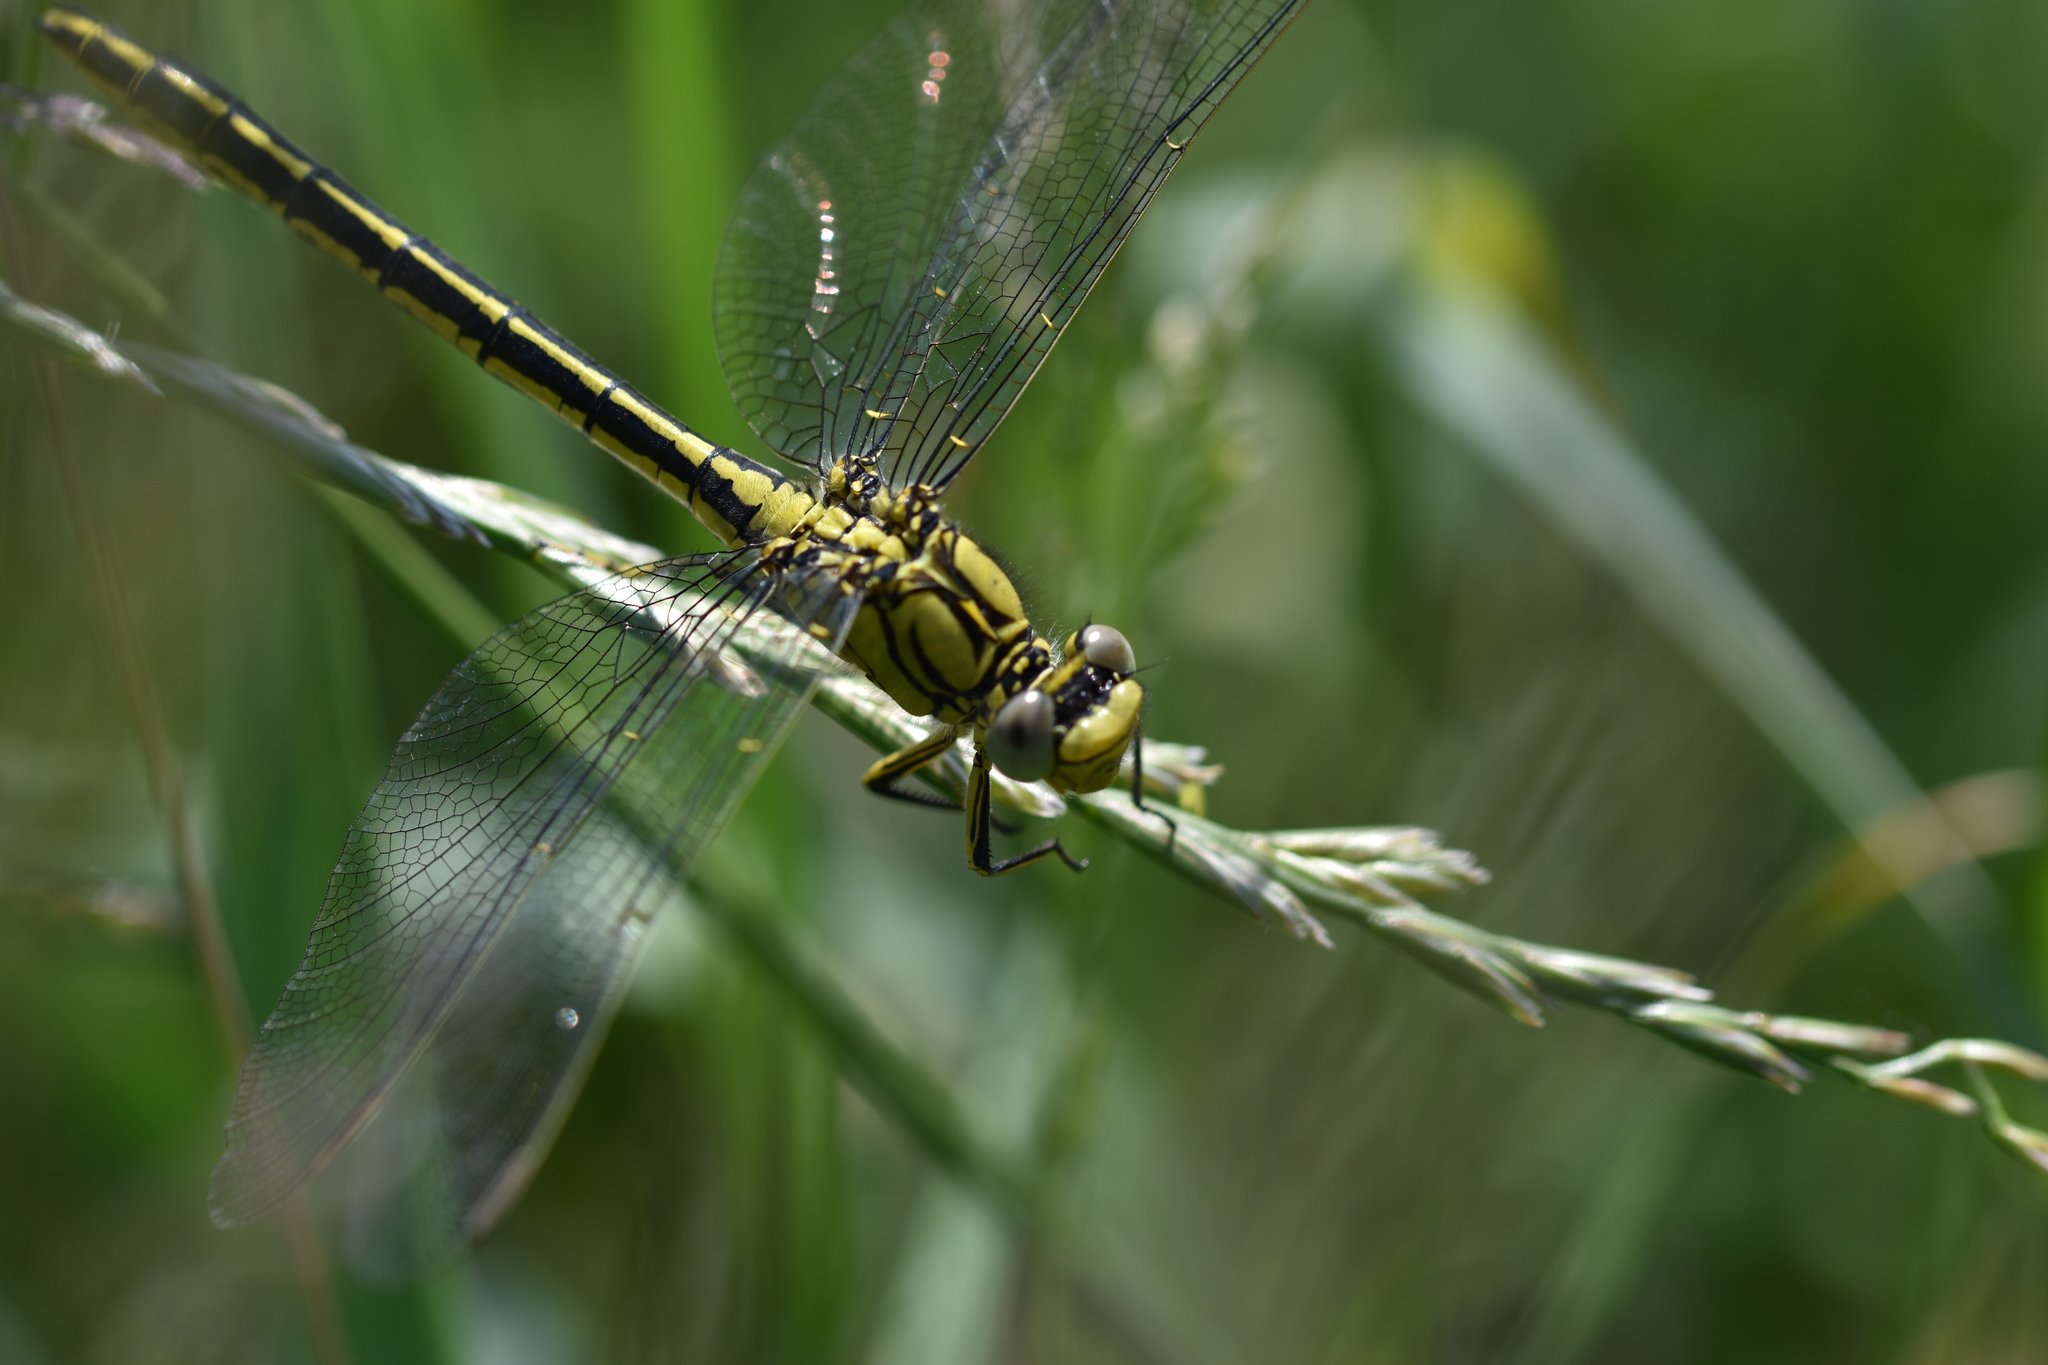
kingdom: Animalia
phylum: Arthropoda
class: Insecta
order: Odonata
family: Gomphidae
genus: Gomphus
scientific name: Gomphus pulchellus
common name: Western clubtail
